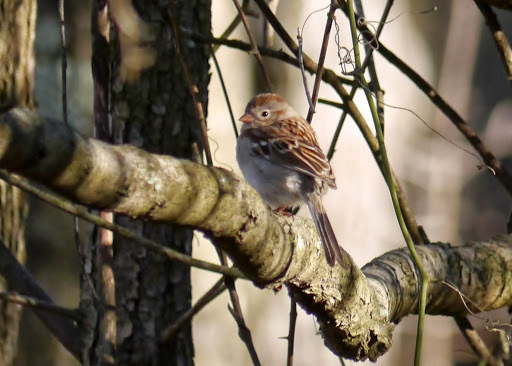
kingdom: Animalia
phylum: Chordata
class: Aves
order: Passeriformes
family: Passerellidae
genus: Spizella
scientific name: Spizella pusilla
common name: Field sparrow
